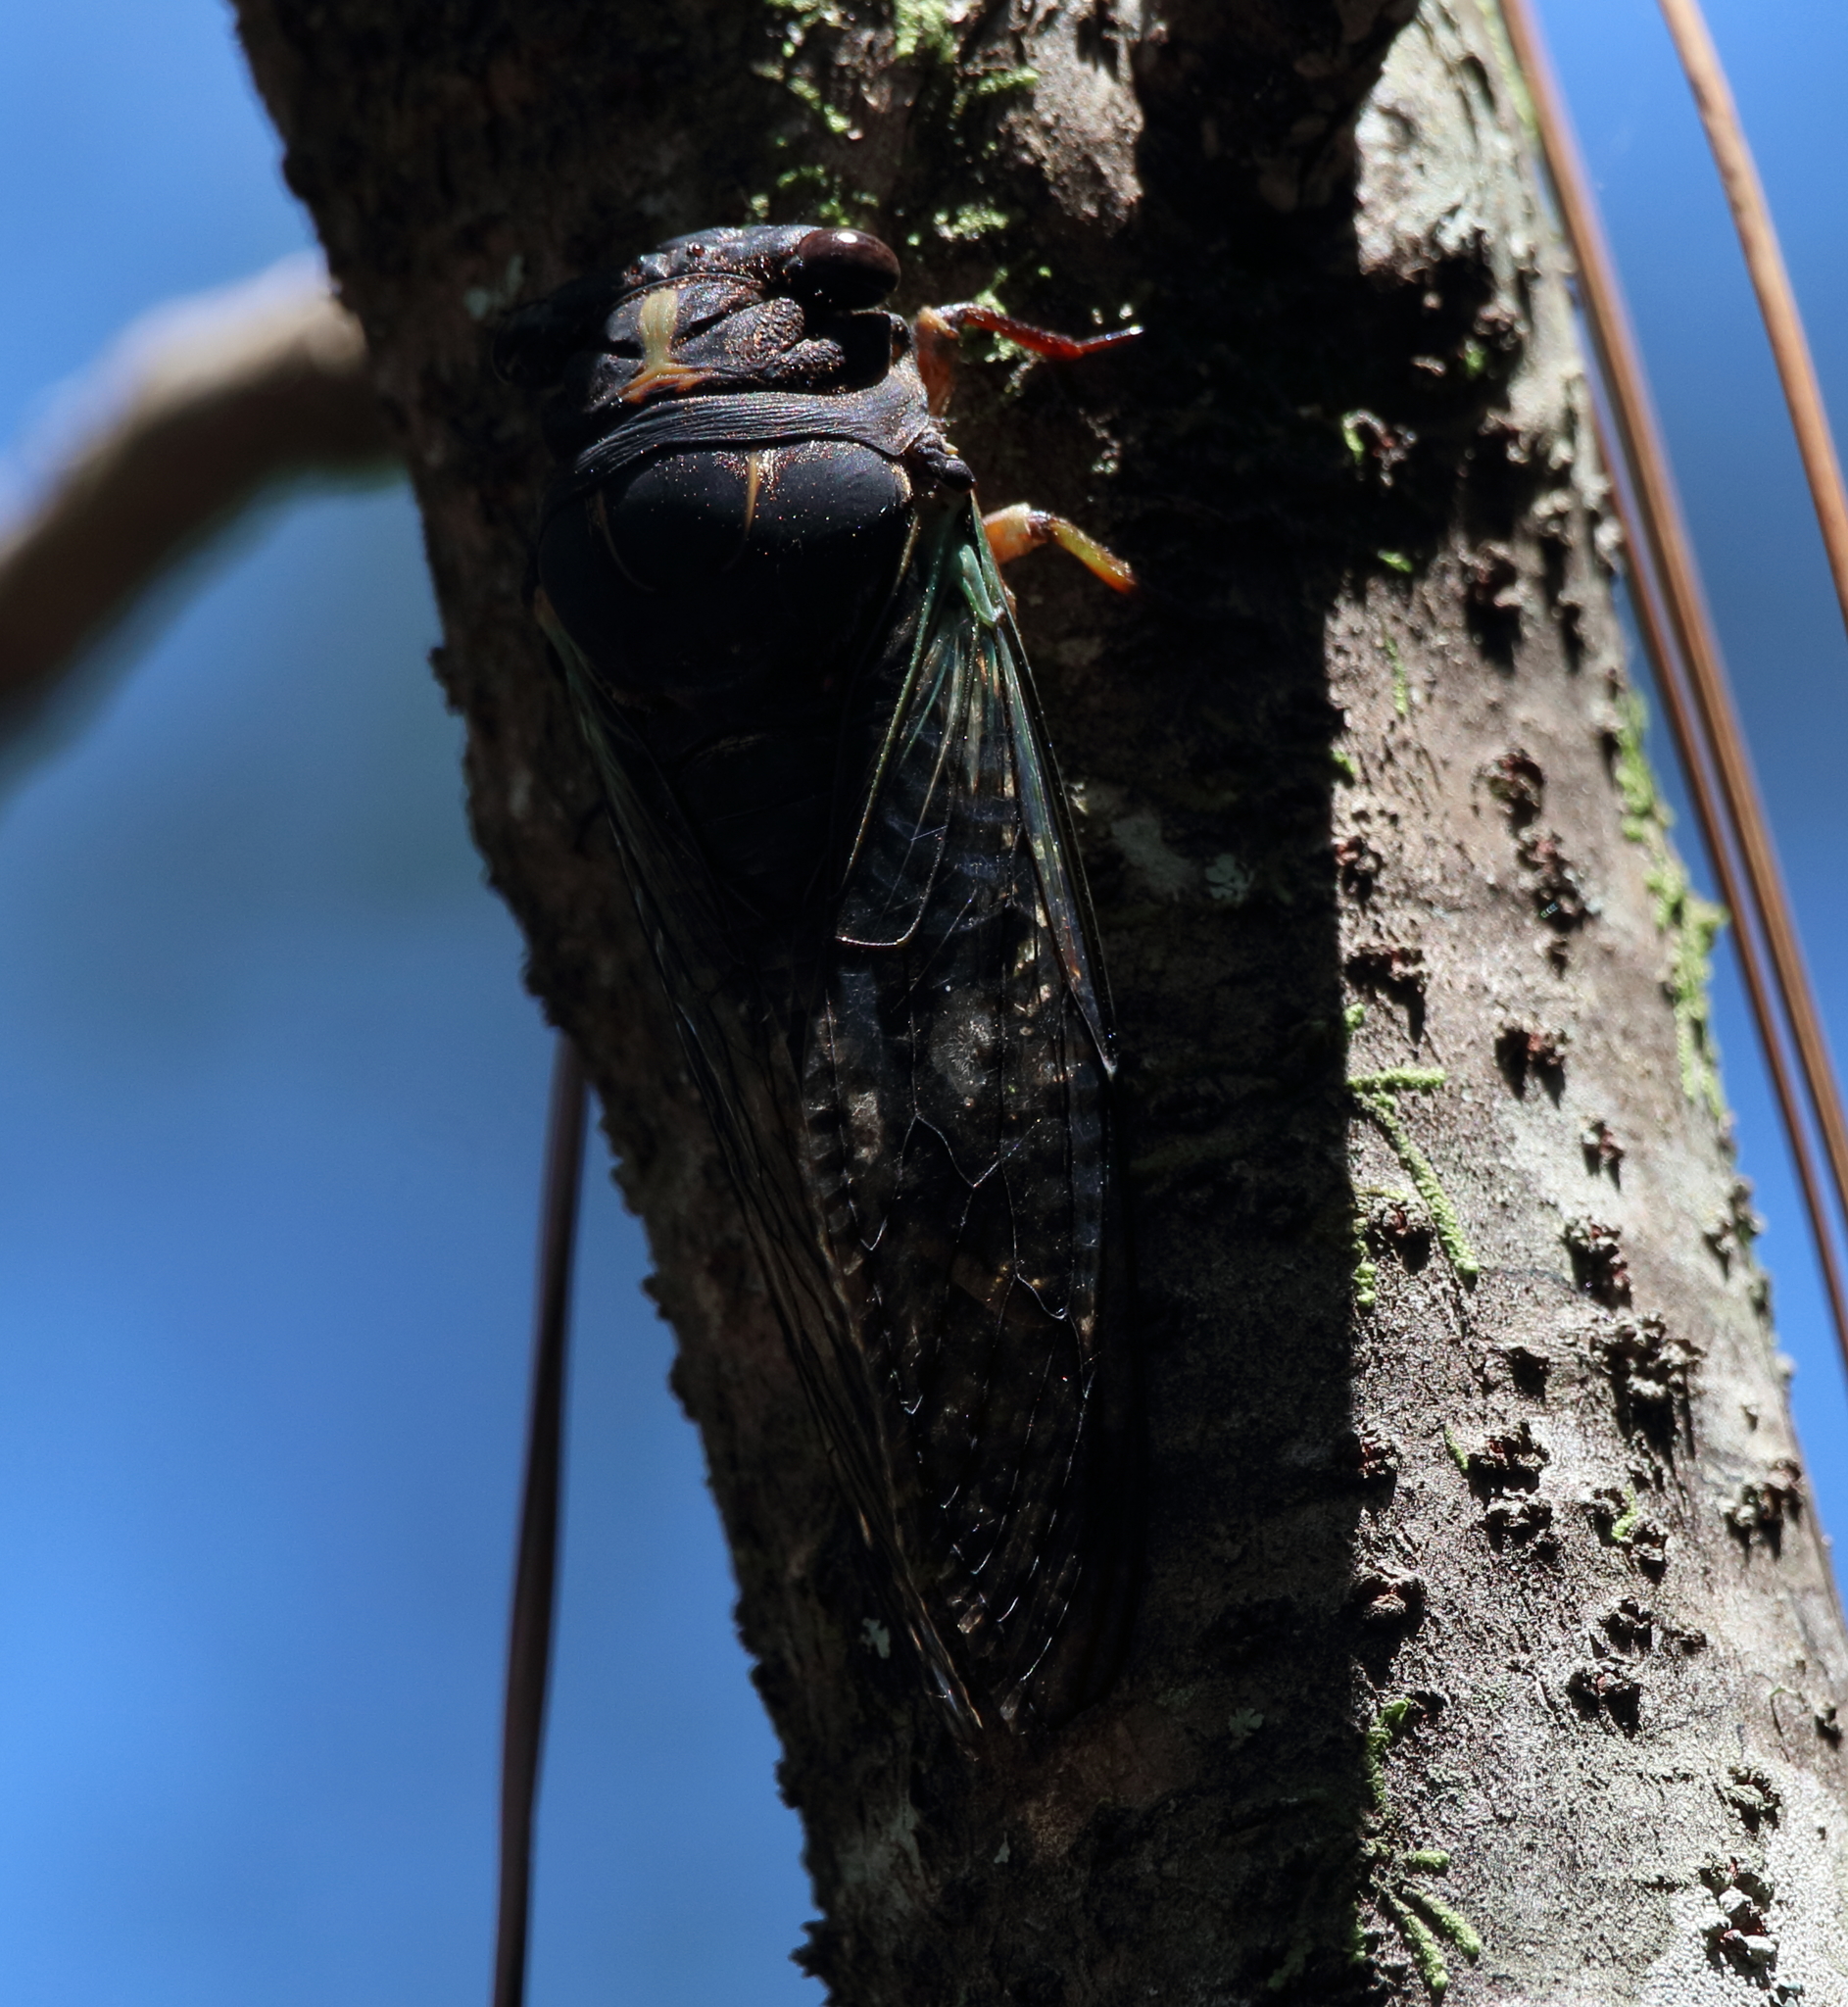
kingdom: Animalia
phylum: Arthropoda
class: Insecta
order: Hemiptera
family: Cicadidae
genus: Neotibicen
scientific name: Neotibicen lyricen
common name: Lyric cicada
